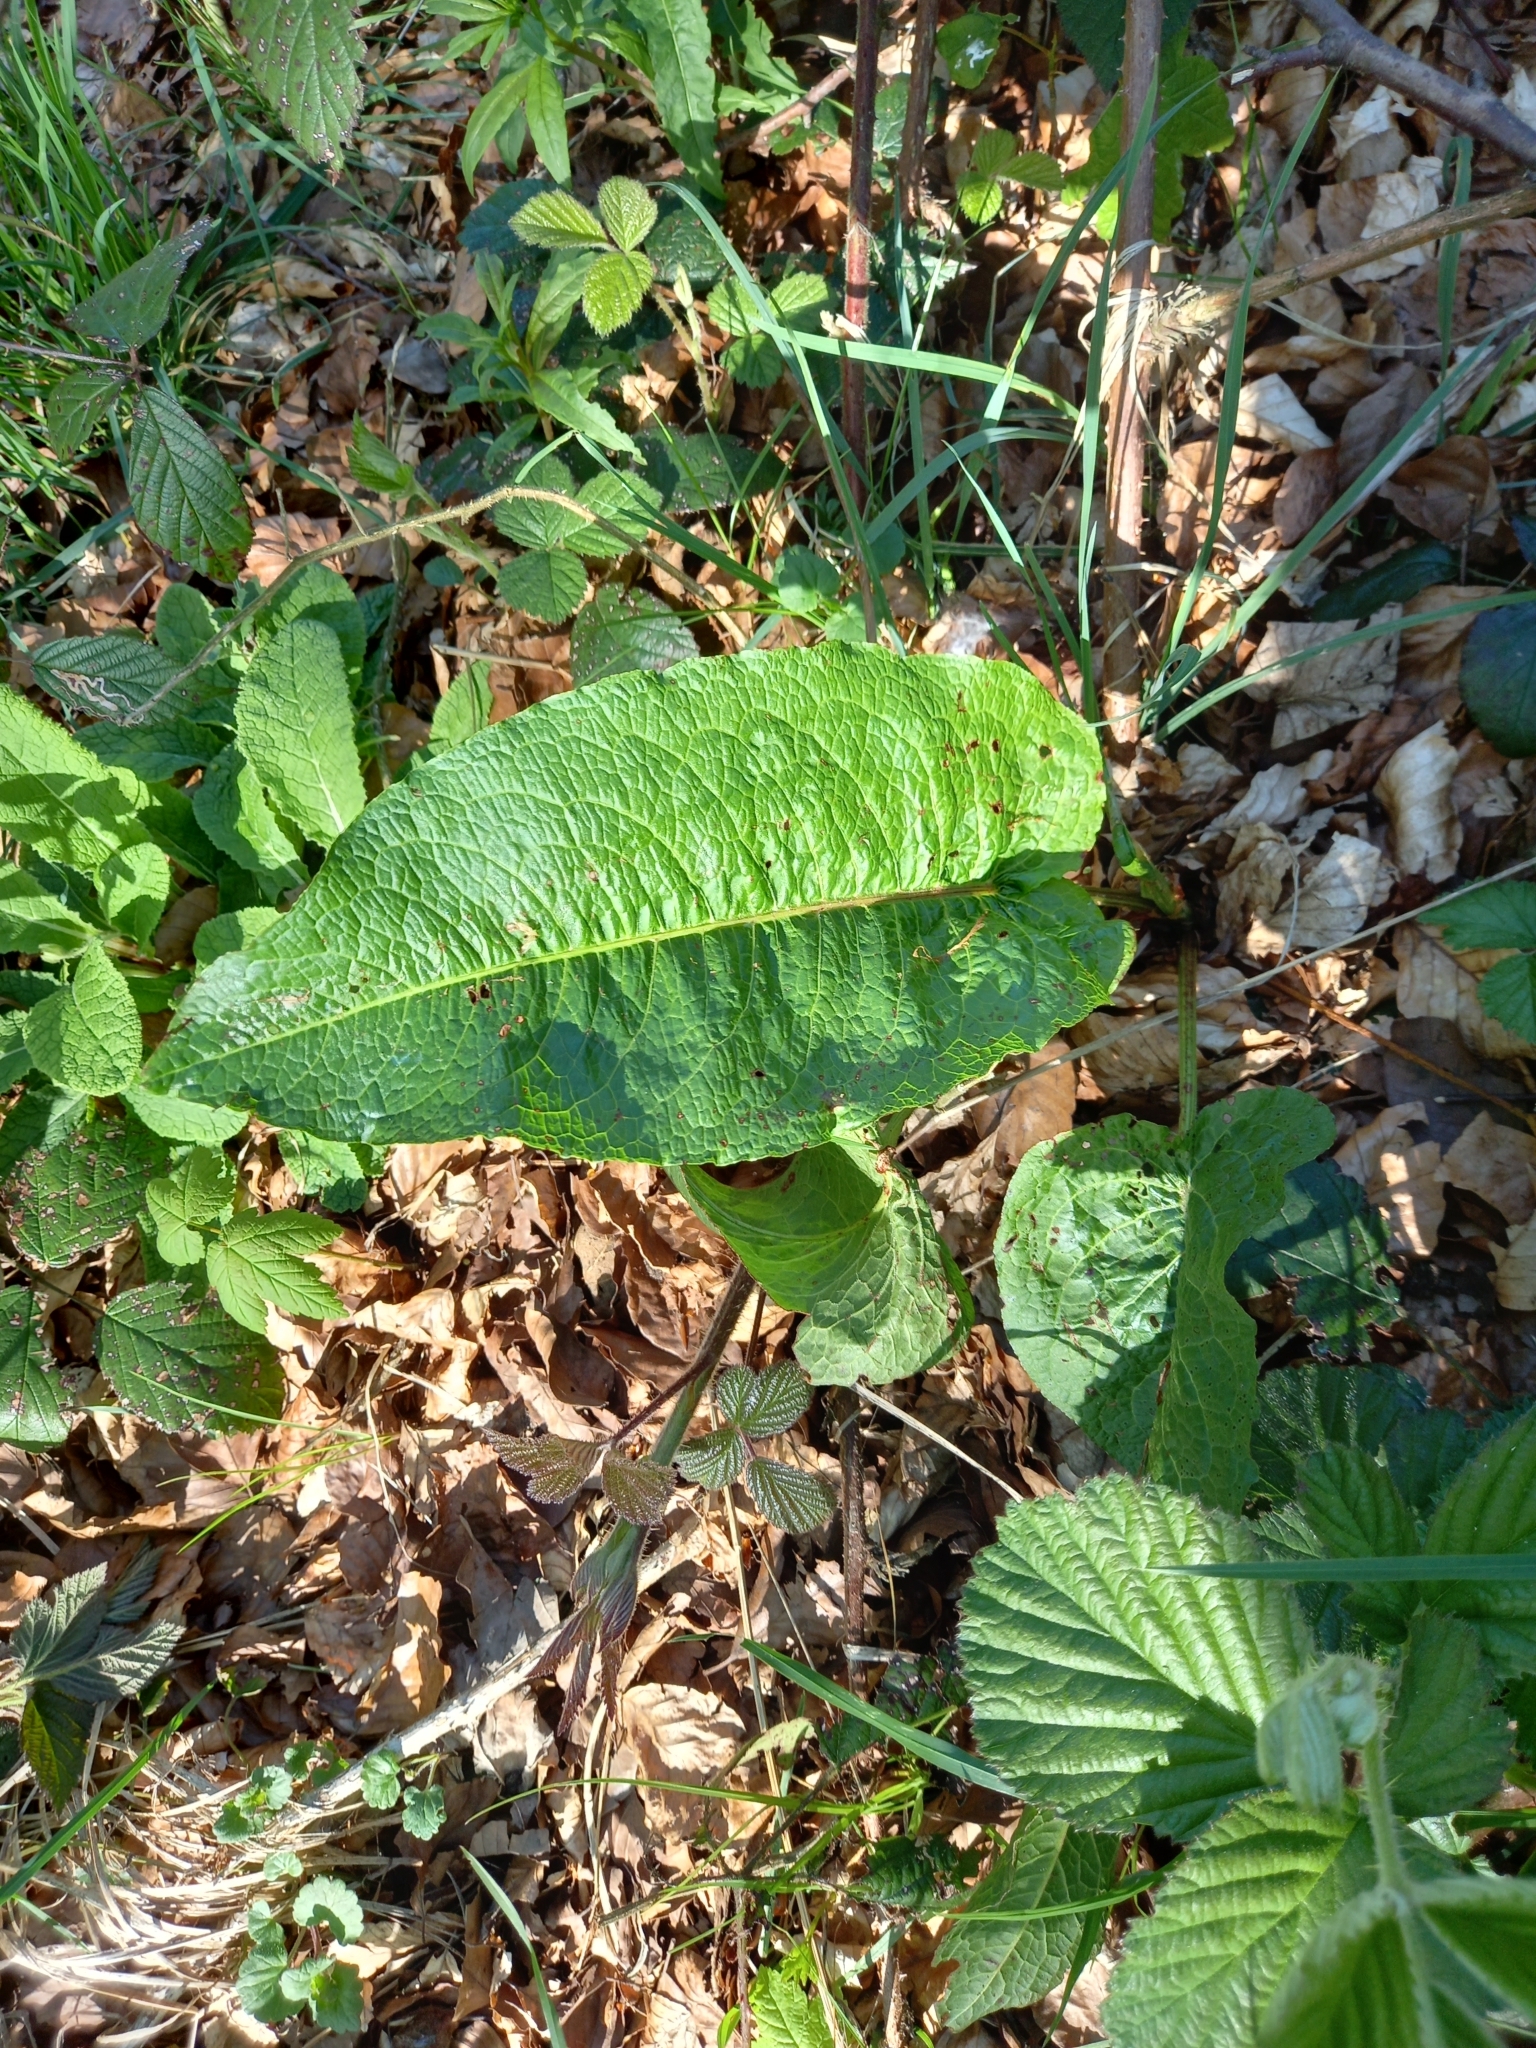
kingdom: Plantae
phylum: Tracheophyta
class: Magnoliopsida
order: Caryophyllales
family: Polygonaceae
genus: Rumex
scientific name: Rumex obtusifolius
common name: Bitter dock
